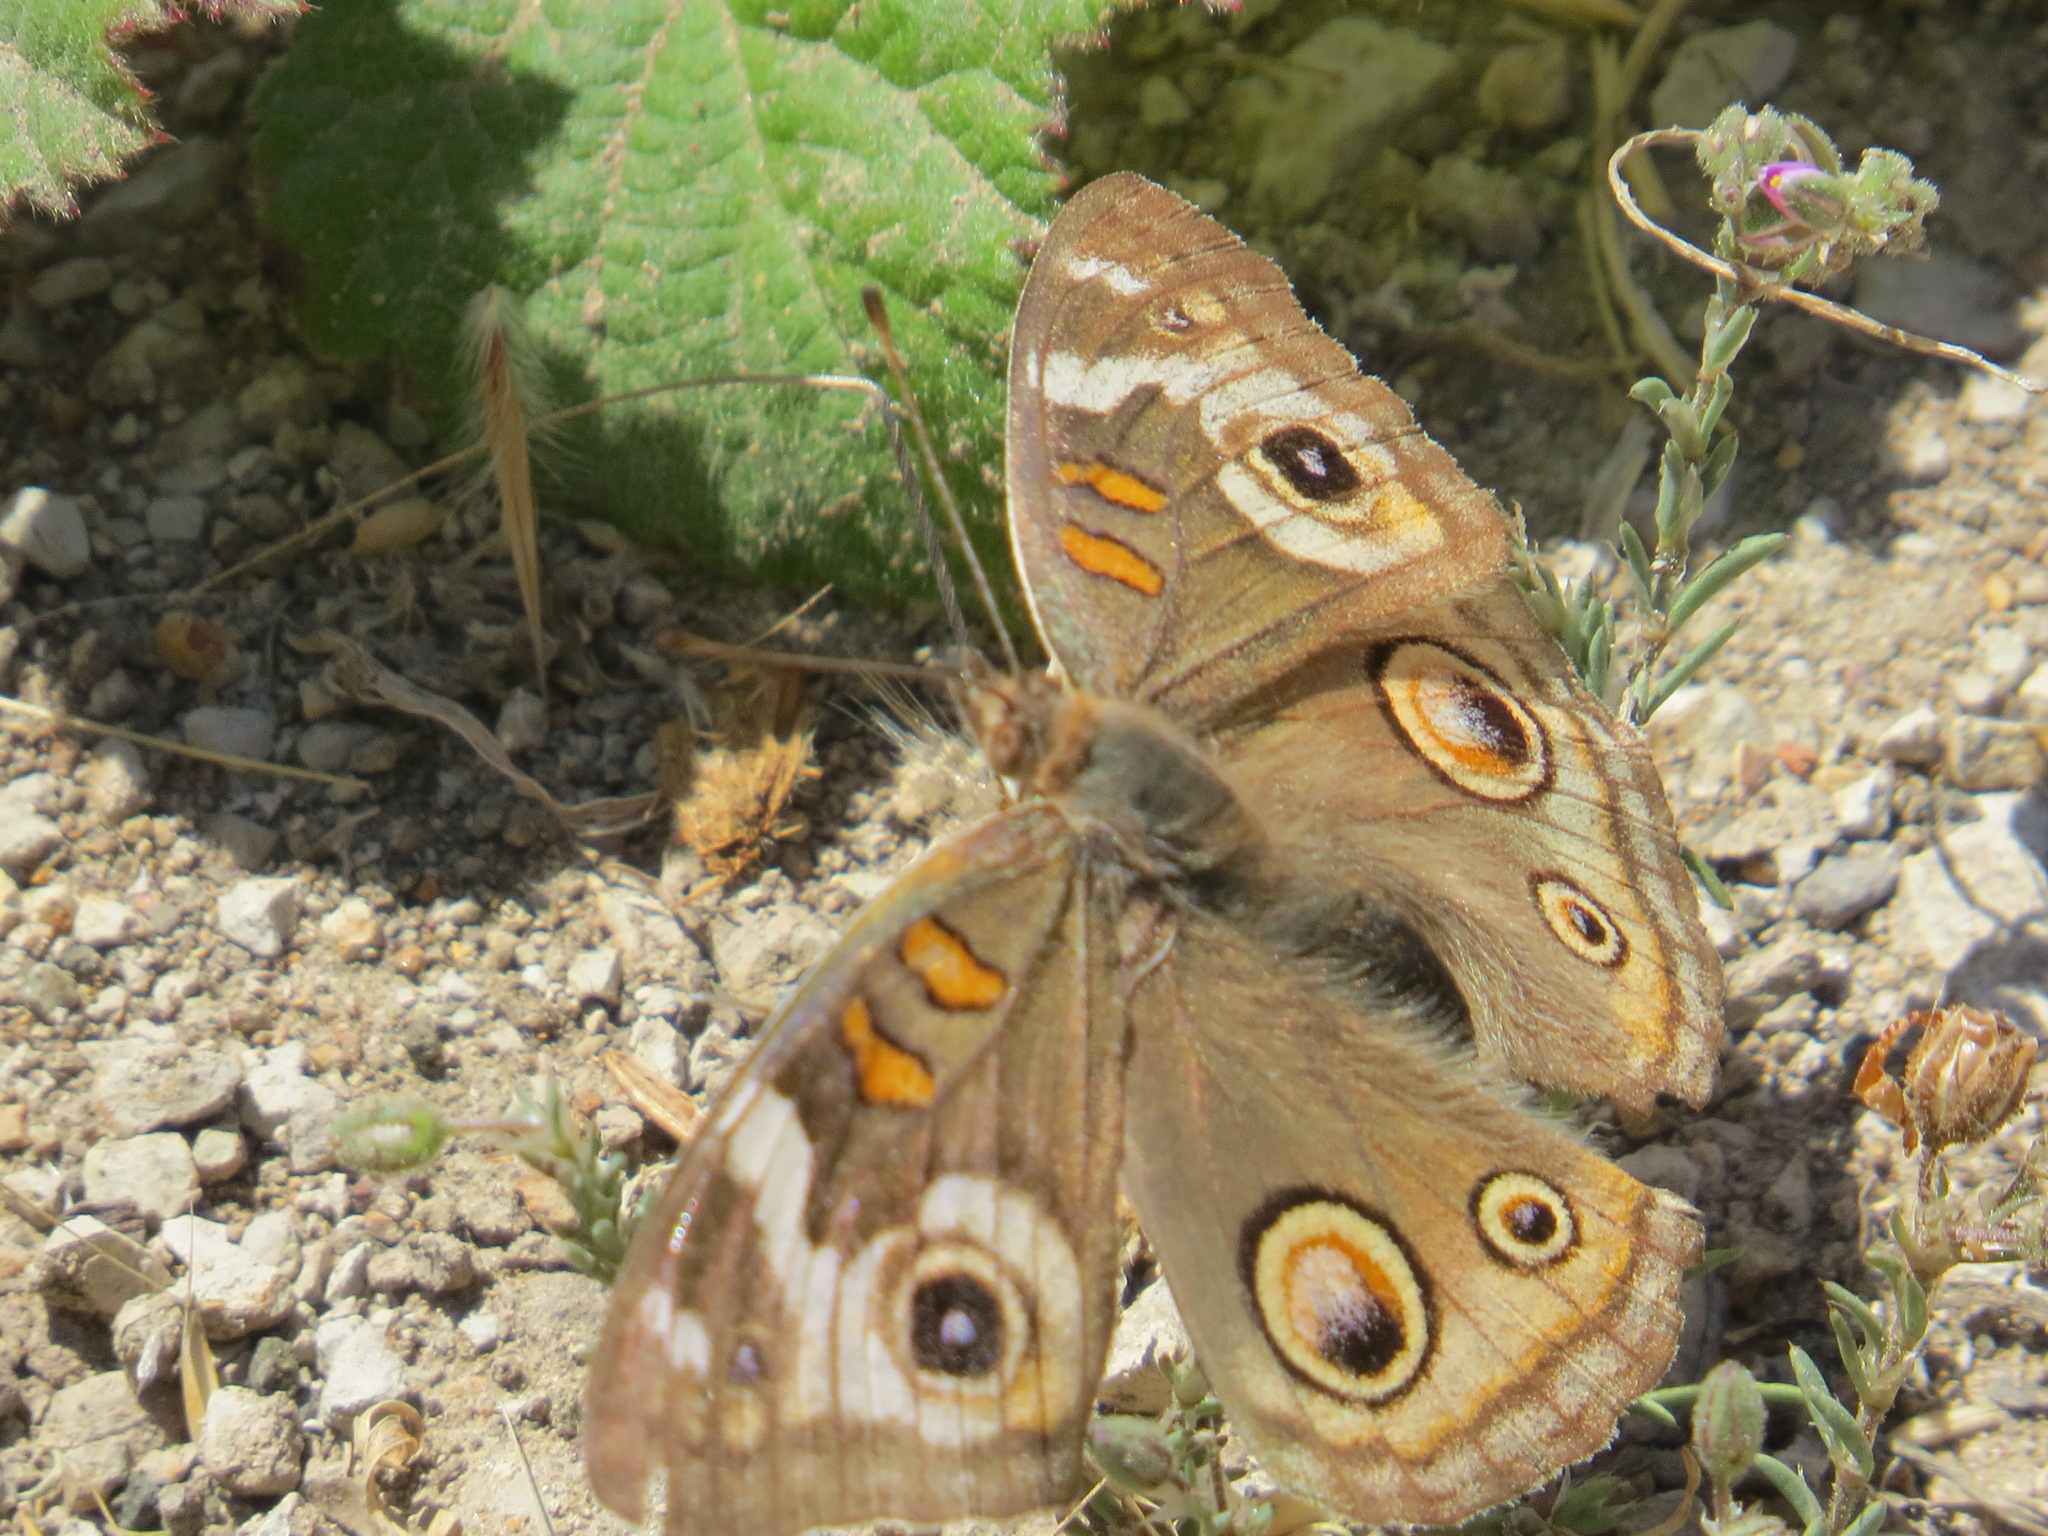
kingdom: Animalia
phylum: Arthropoda
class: Insecta
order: Lepidoptera
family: Nymphalidae
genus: Junonia
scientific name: Junonia grisea
